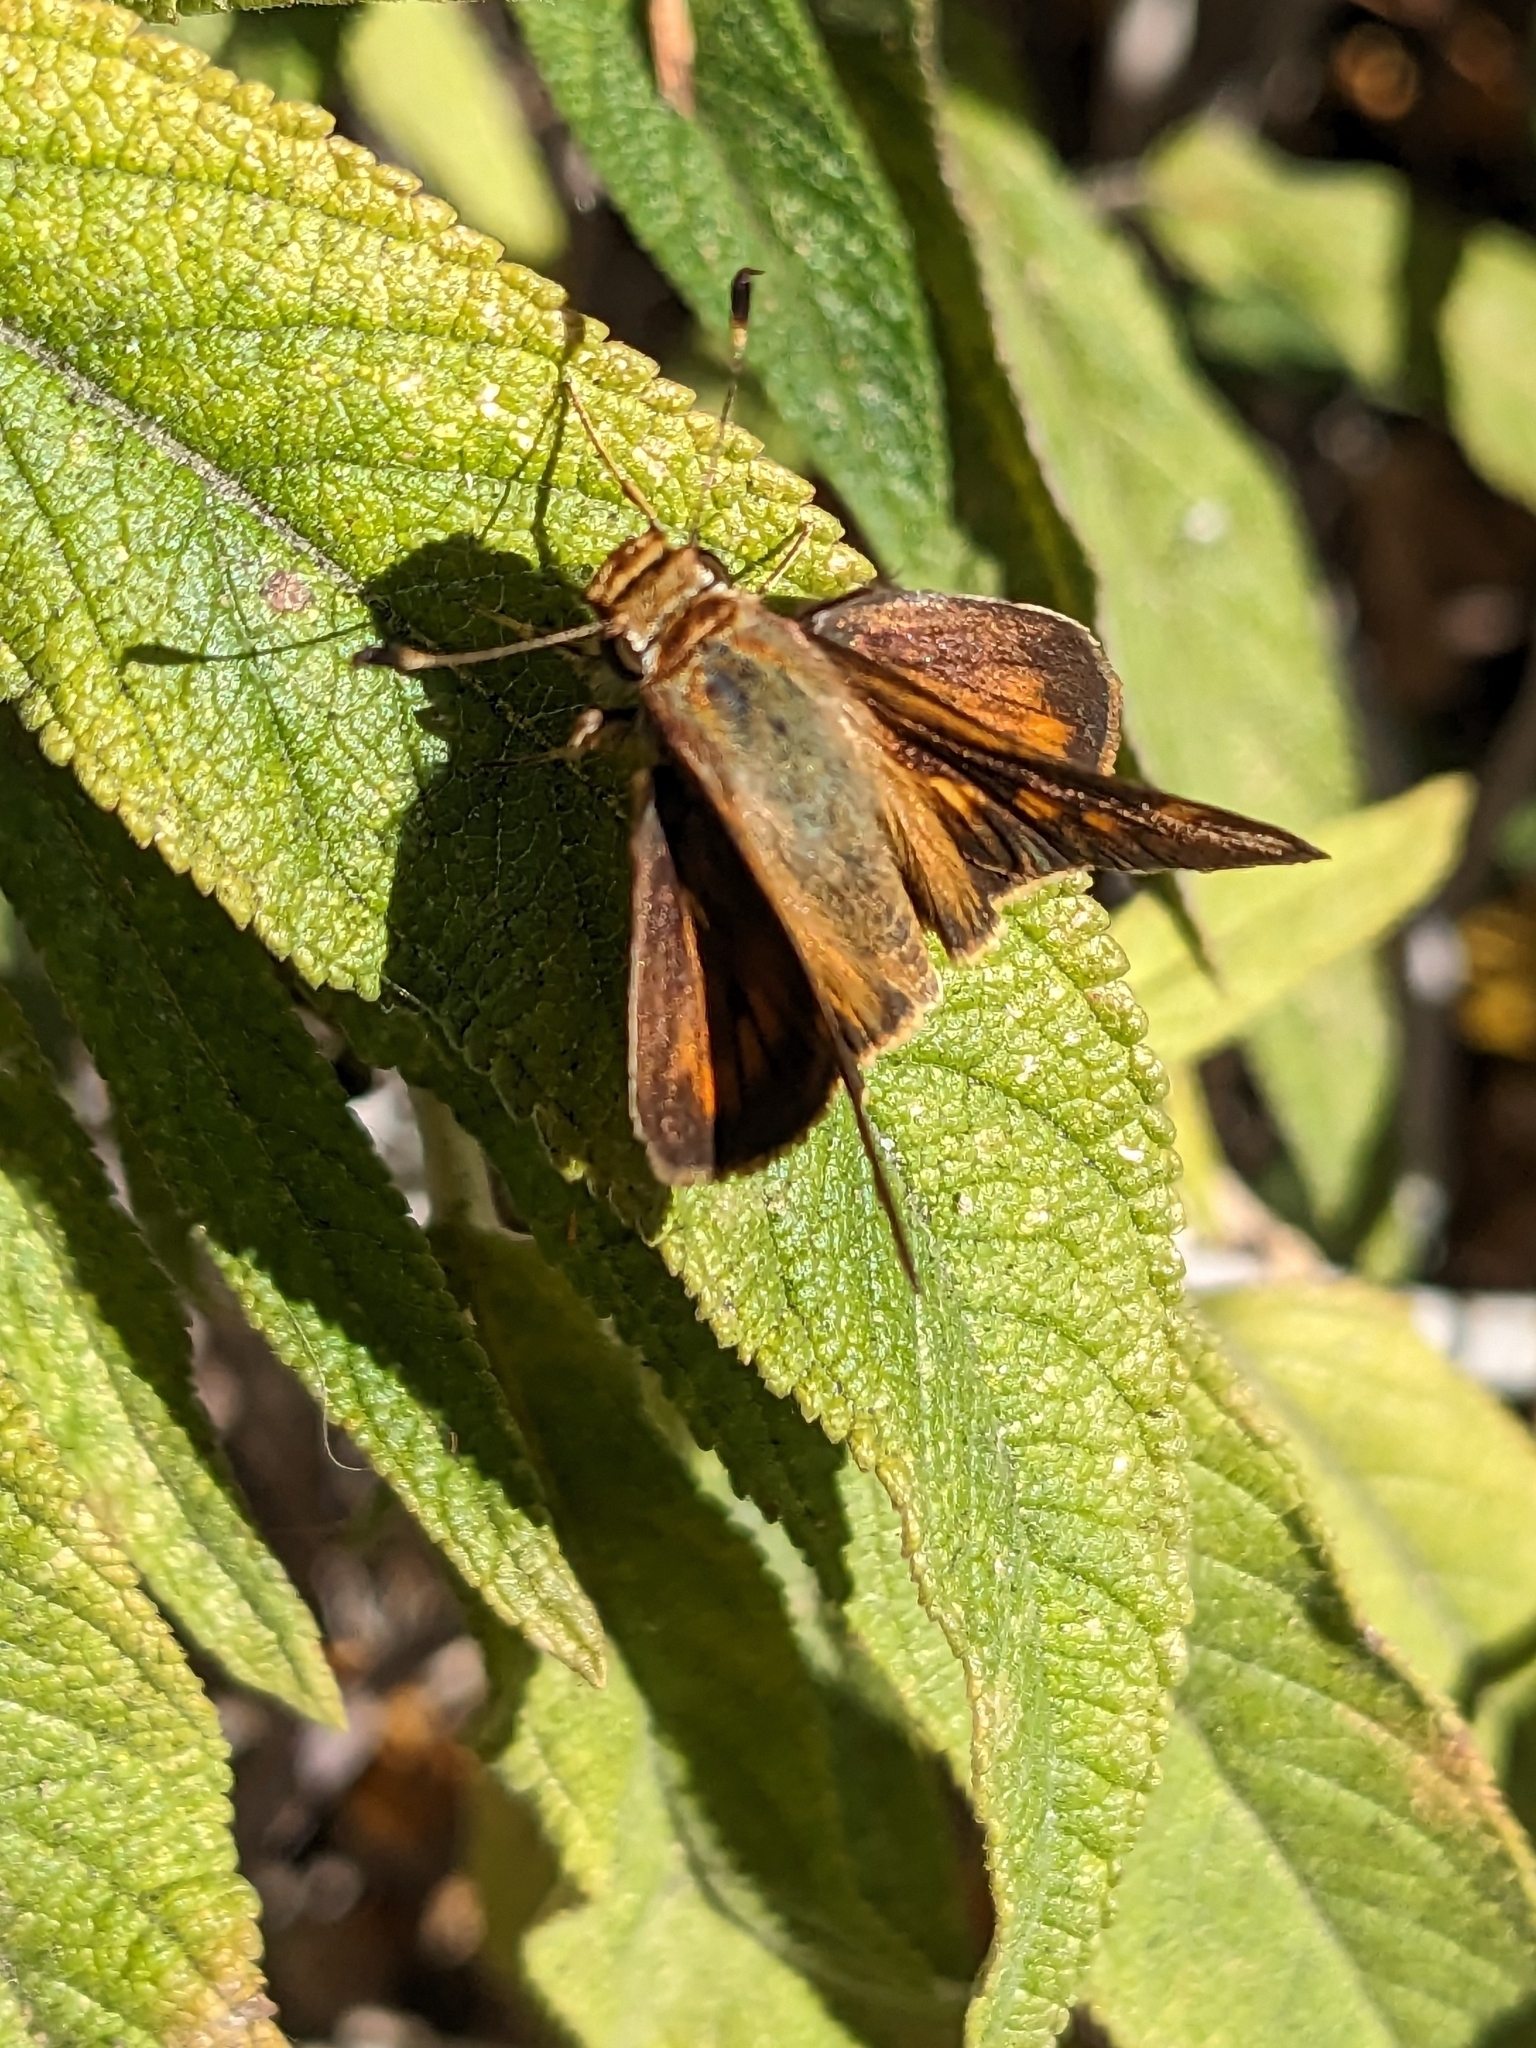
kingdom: Animalia
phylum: Arthropoda
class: Insecta
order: Lepidoptera
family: Hesperiidae
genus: Lon
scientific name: Lon melane
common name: Umber skipper
